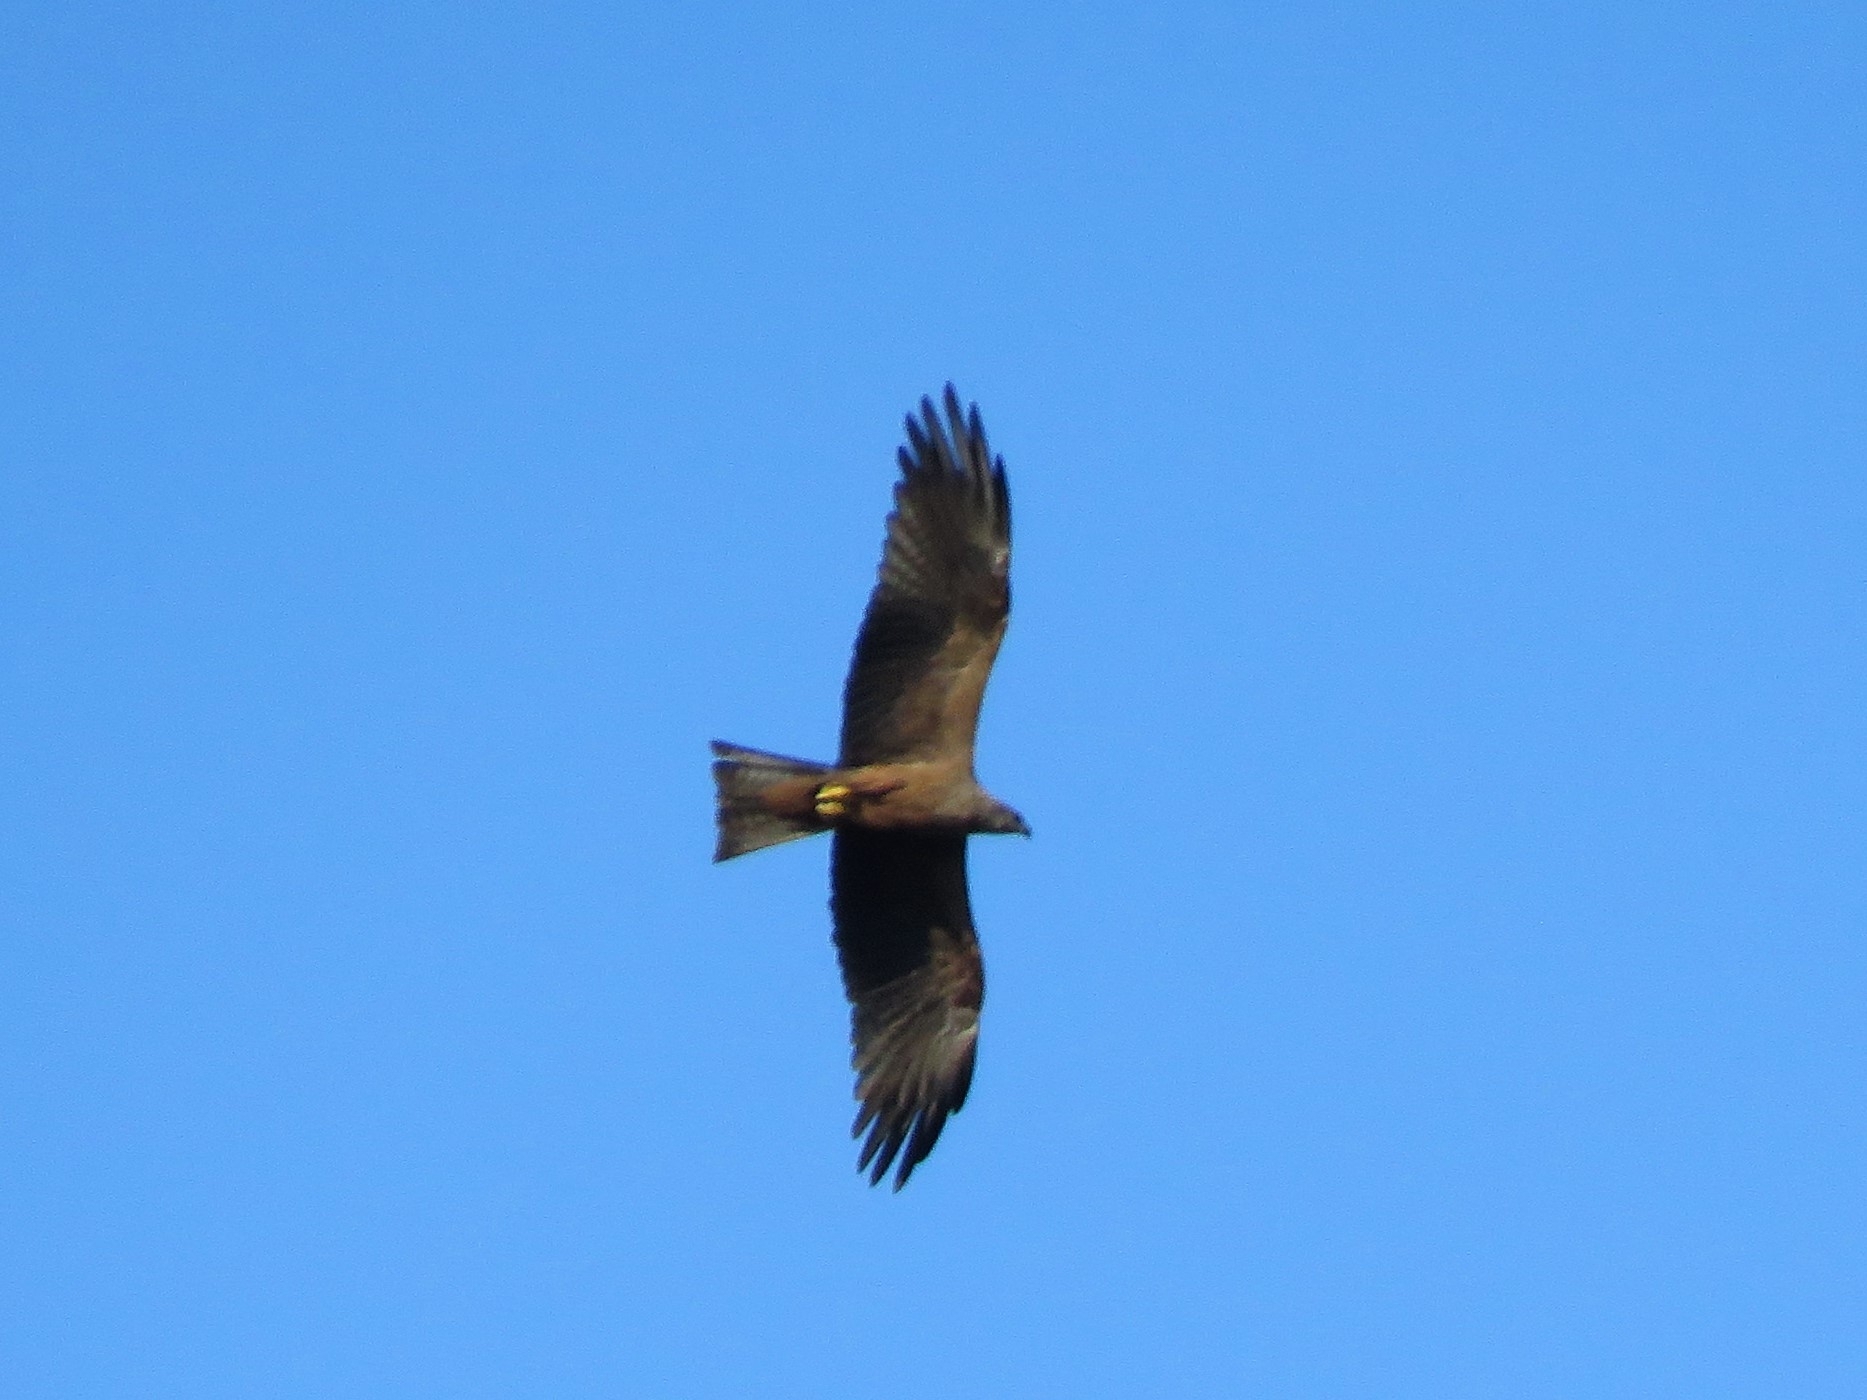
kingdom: Animalia
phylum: Chordata
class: Aves
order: Accipitriformes
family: Accipitridae
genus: Milvus
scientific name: Milvus migrans
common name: Black kite
